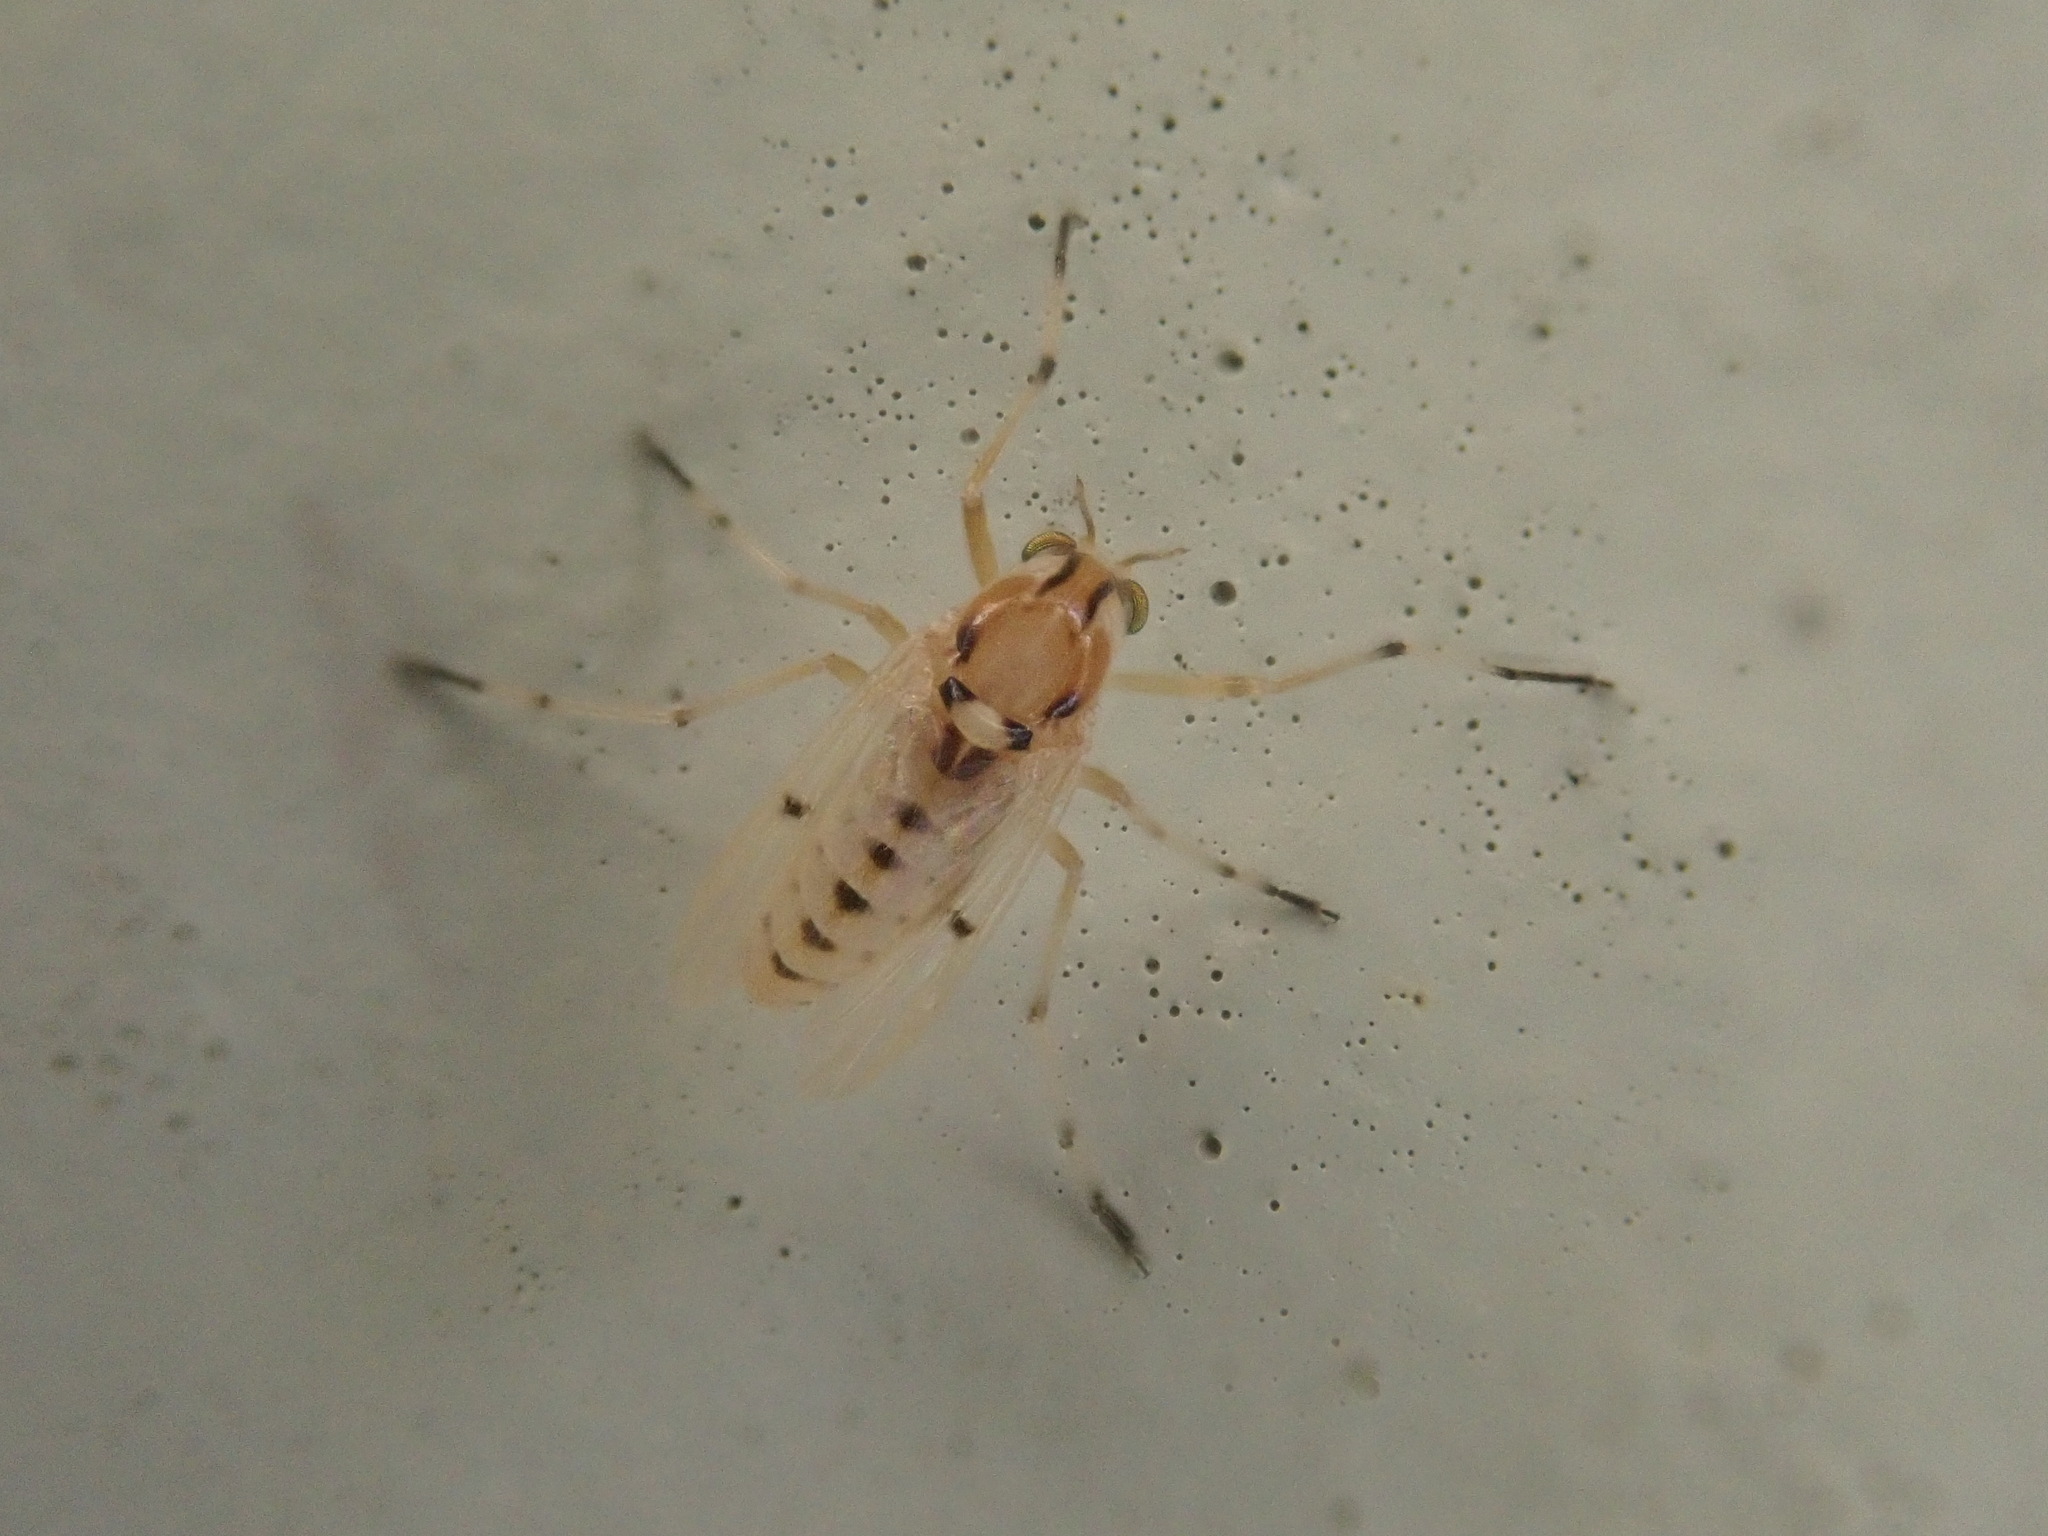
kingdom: Animalia
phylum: Arthropoda
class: Insecta
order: Diptera
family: Chironomidae
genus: Coelotanypus
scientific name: Coelotanypus concinnus
